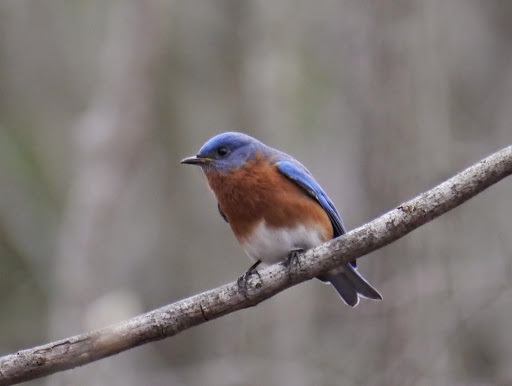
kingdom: Animalia
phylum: Chordata
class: Aves
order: Passeriformes
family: Turdidae
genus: Sialia
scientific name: Sialia sialis
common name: Eastern bluebird
